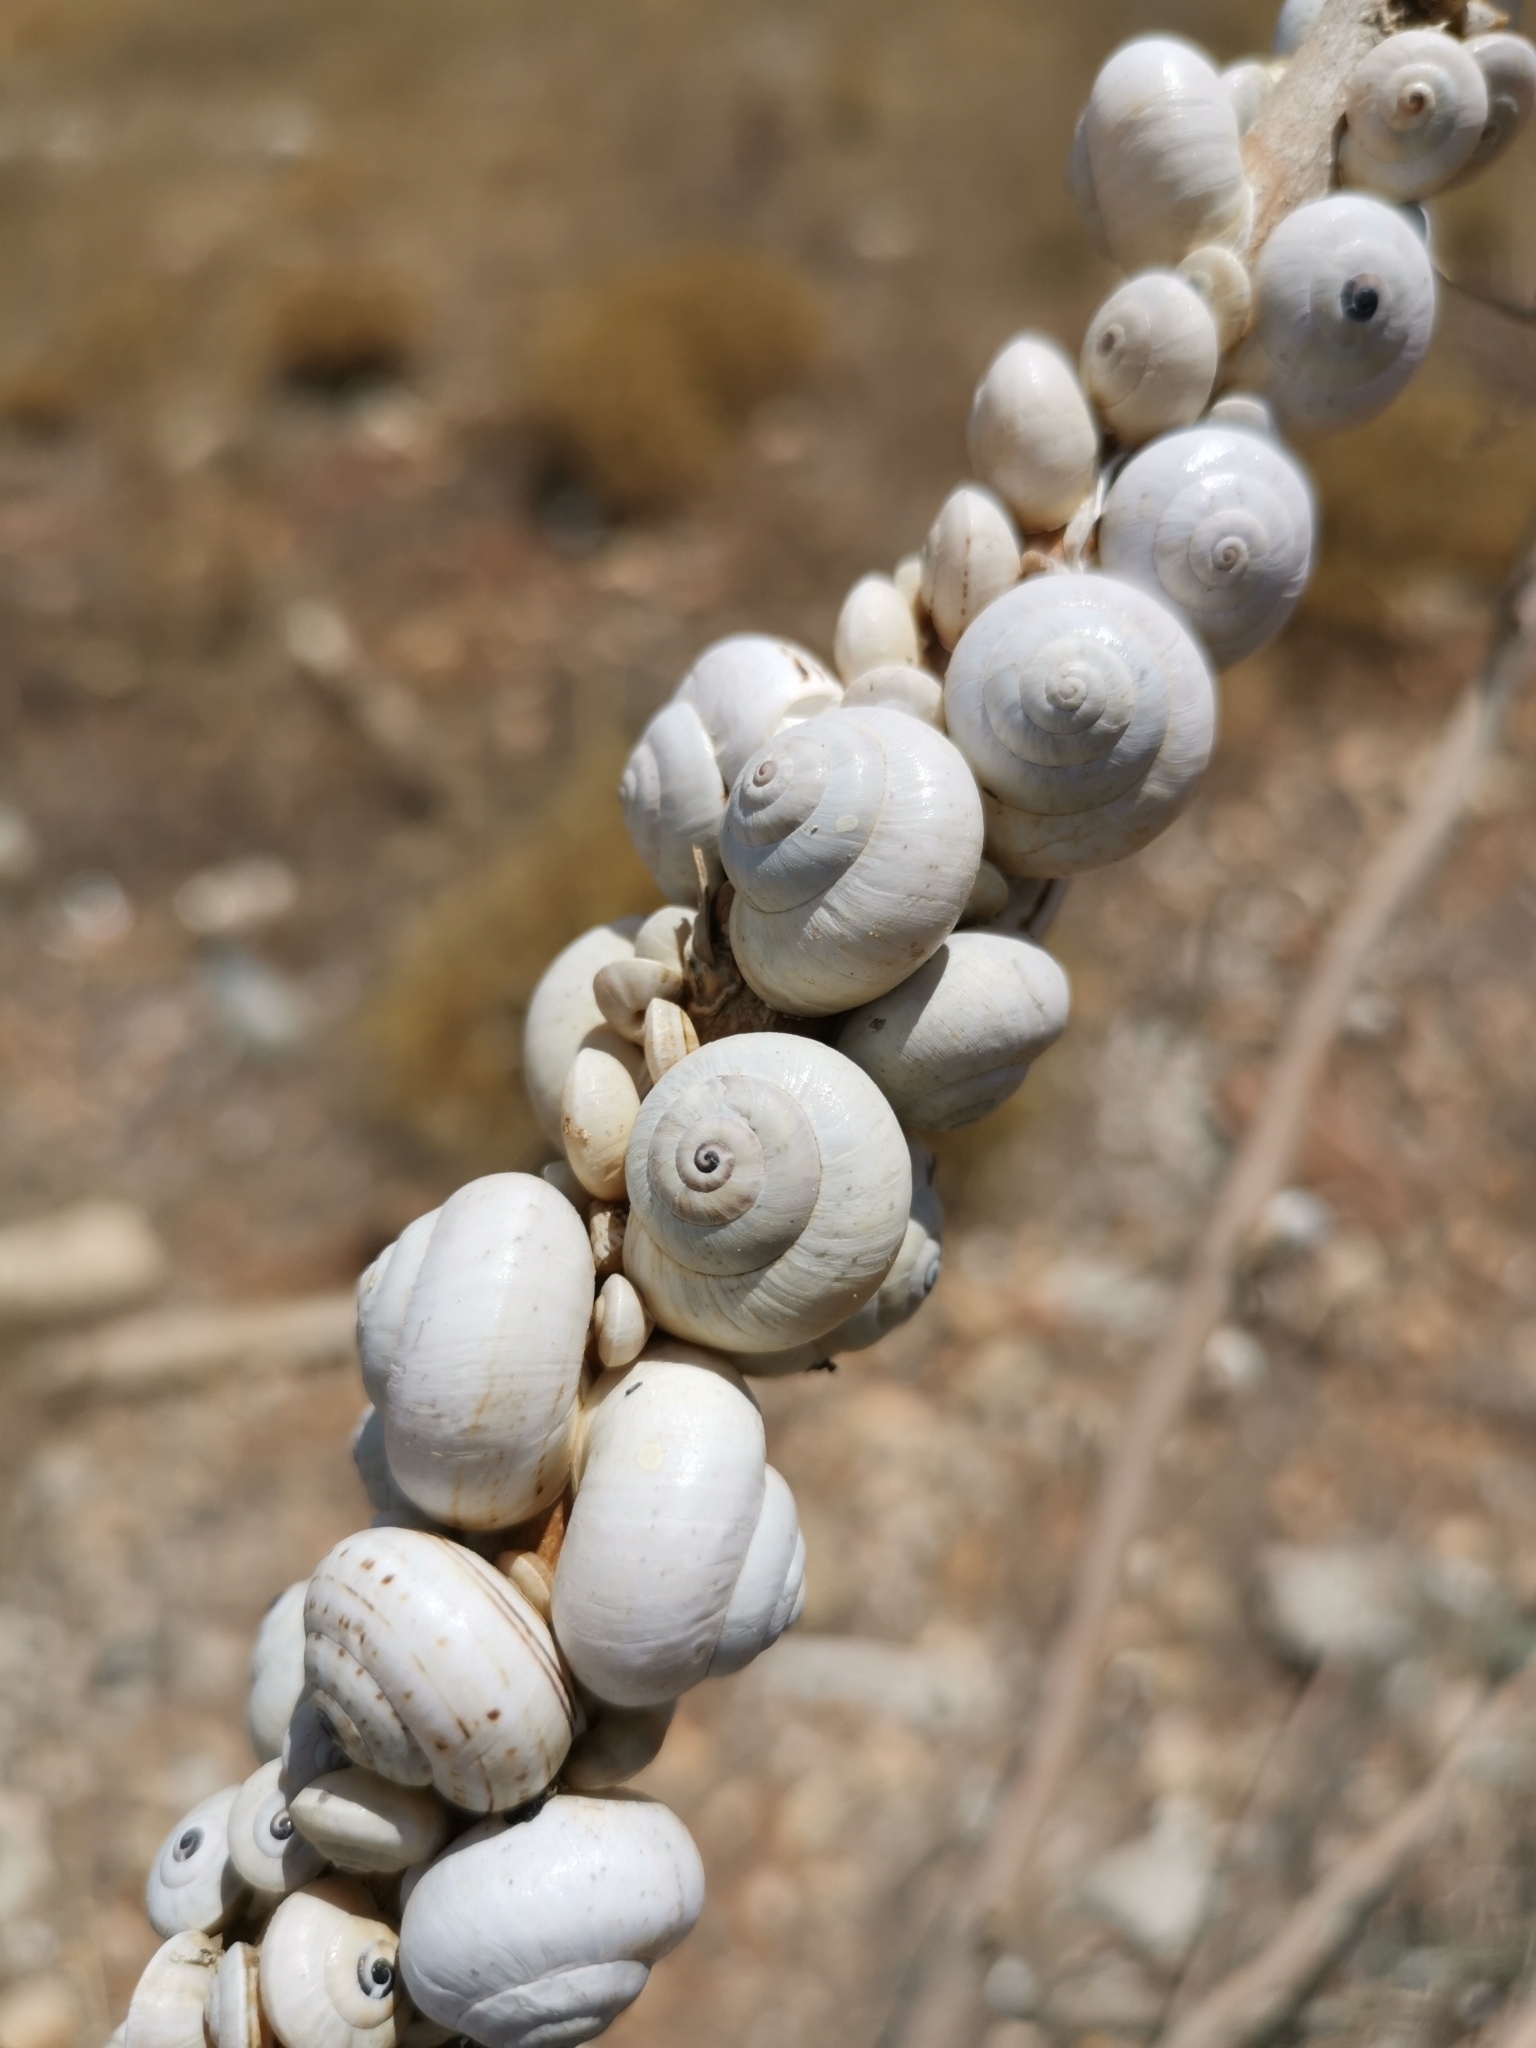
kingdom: Animalia
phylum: Mollusca
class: Gastropoda
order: Stylommatophora
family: Helicidae
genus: Theba
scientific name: Theba pisana
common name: White snail
